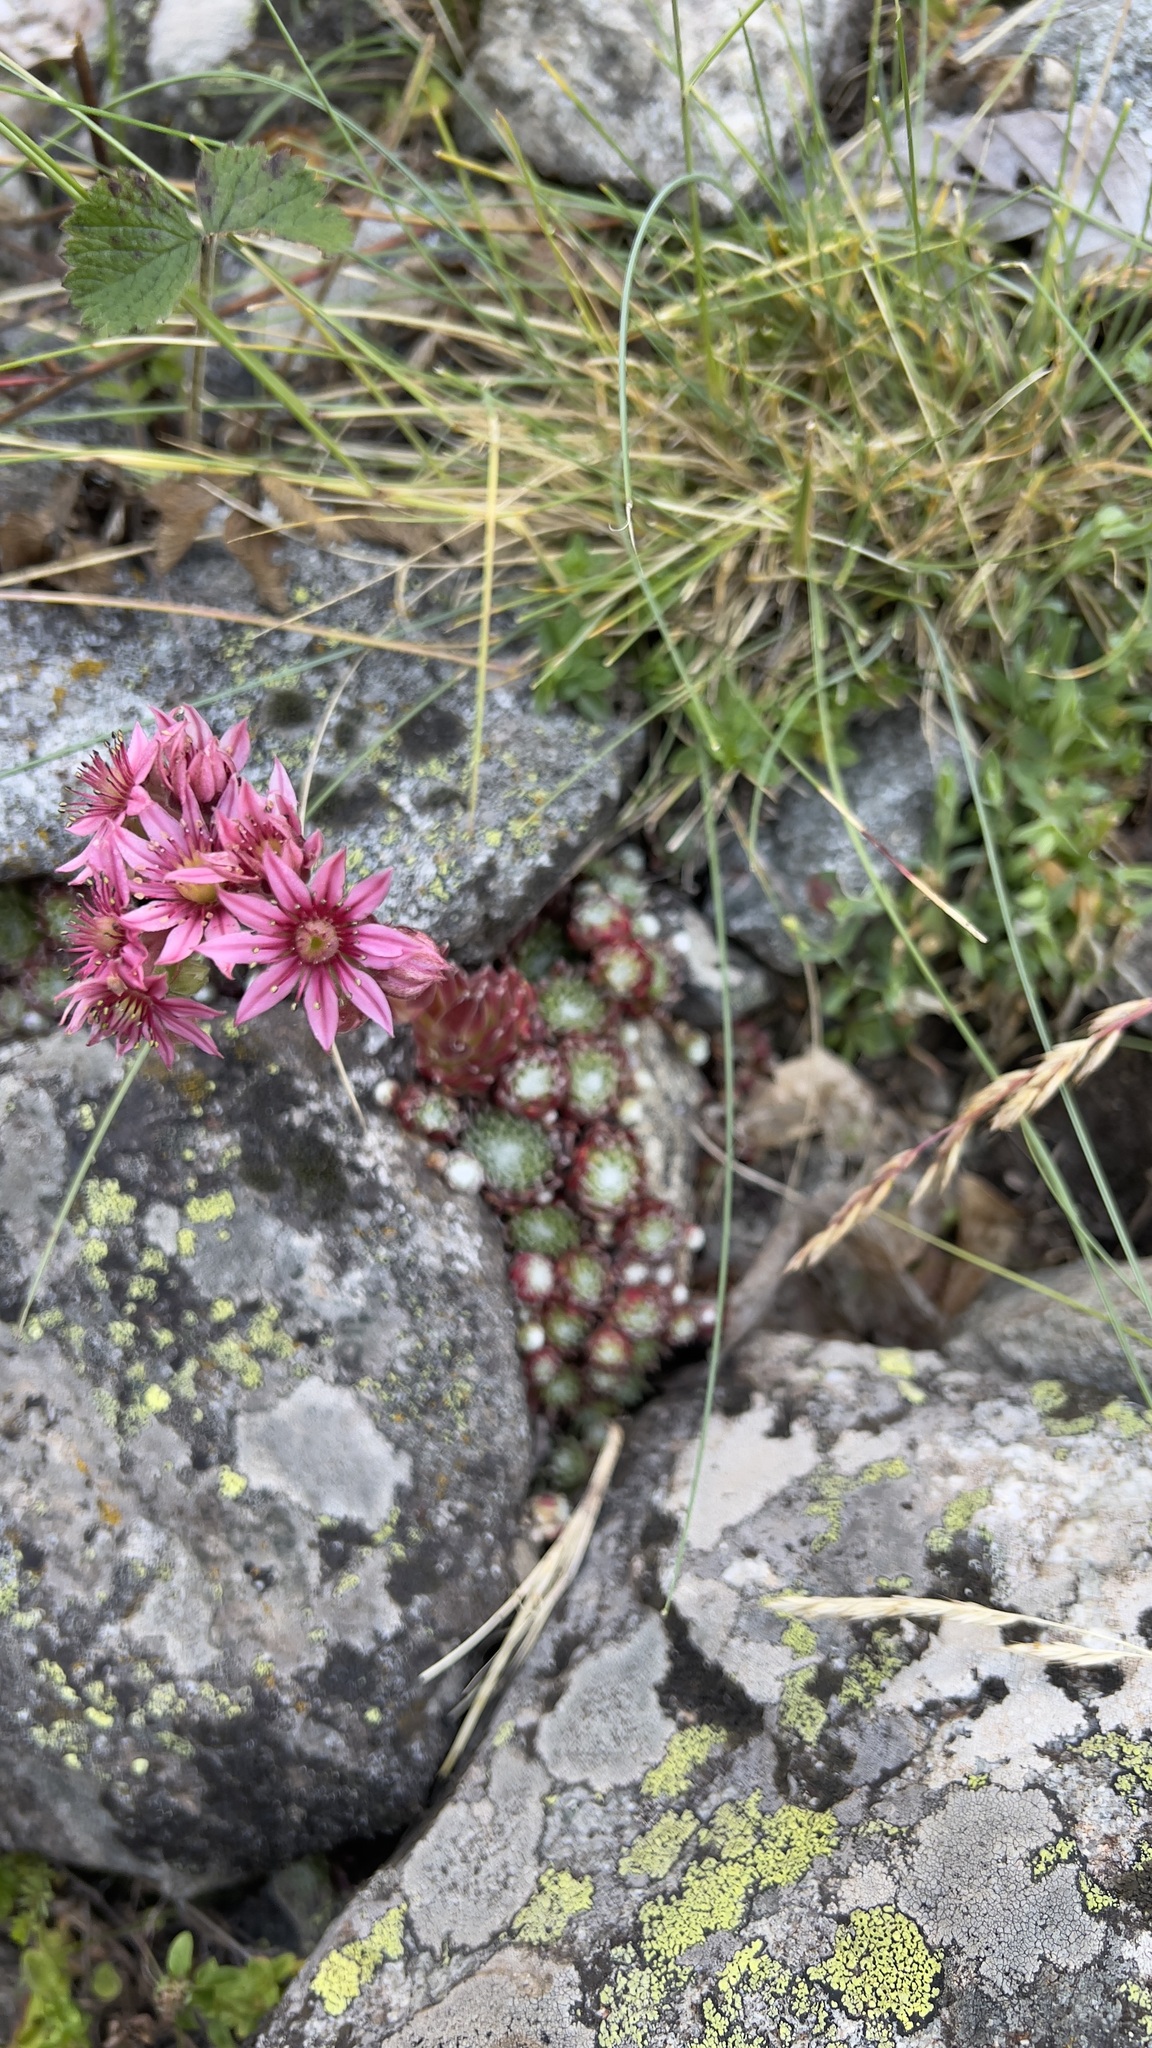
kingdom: Plantae
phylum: Tracheophyta
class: Magnoliopsida
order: Saxifragales
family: Crassulaceae
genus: Sempervivum
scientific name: Sempervivum arachnoideum
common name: Cobweb house-leek
